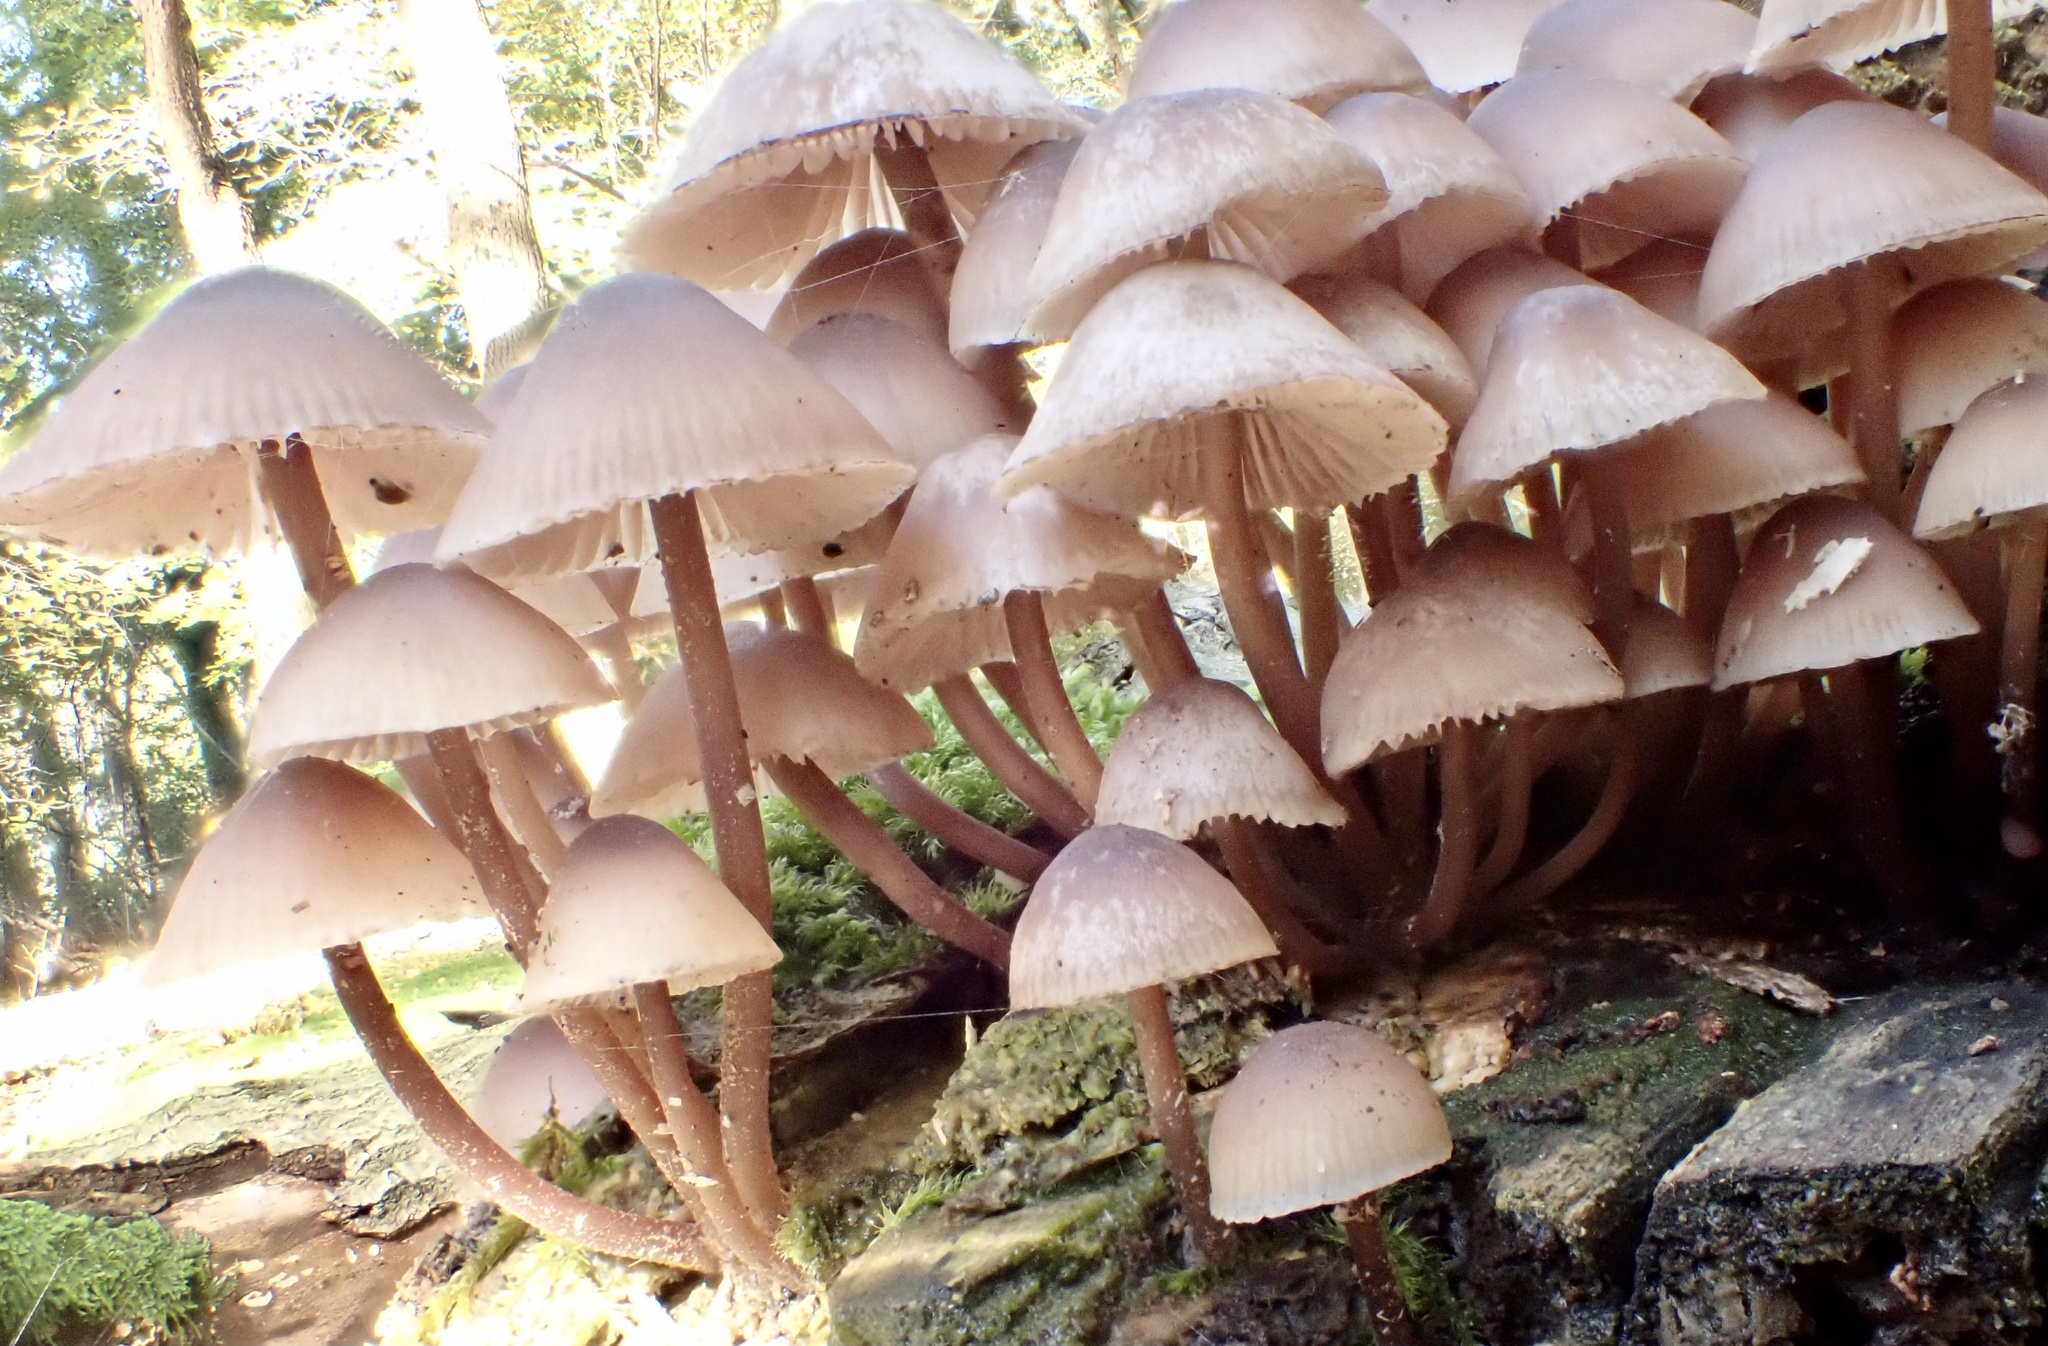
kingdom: Fungi
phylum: Basidiomycota
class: Agaricomycetes
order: Agaricales
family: Mycenaceae
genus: Mycena
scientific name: Mycena haematopus
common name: Burgundydrop bonnet
